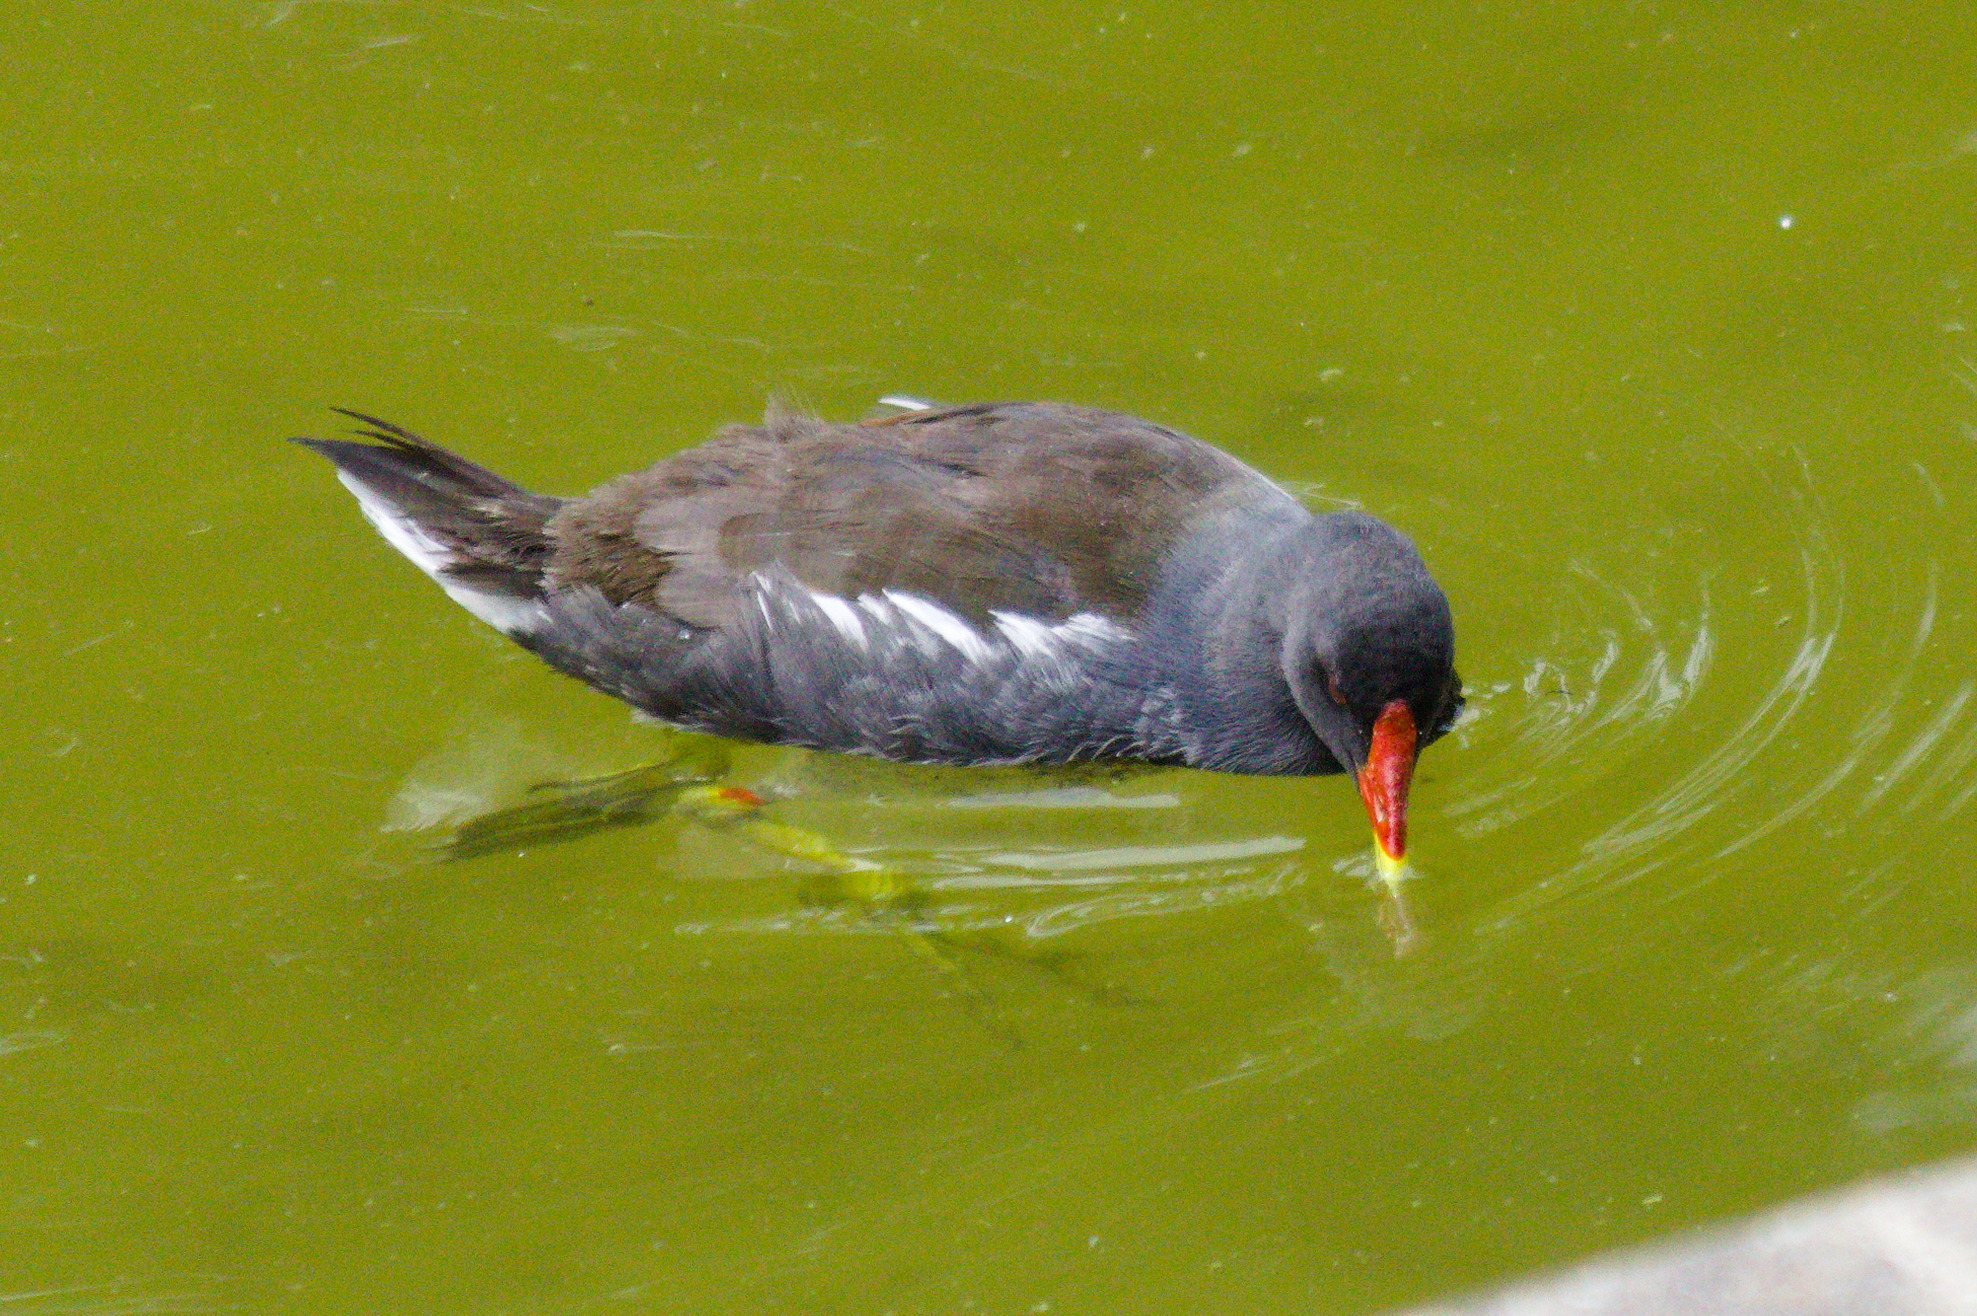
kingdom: Animalia
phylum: Chordata
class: Aves
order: Gruiformes
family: Rallidae
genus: Gallinula
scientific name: Gallinula chloropus
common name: Common moorhen
